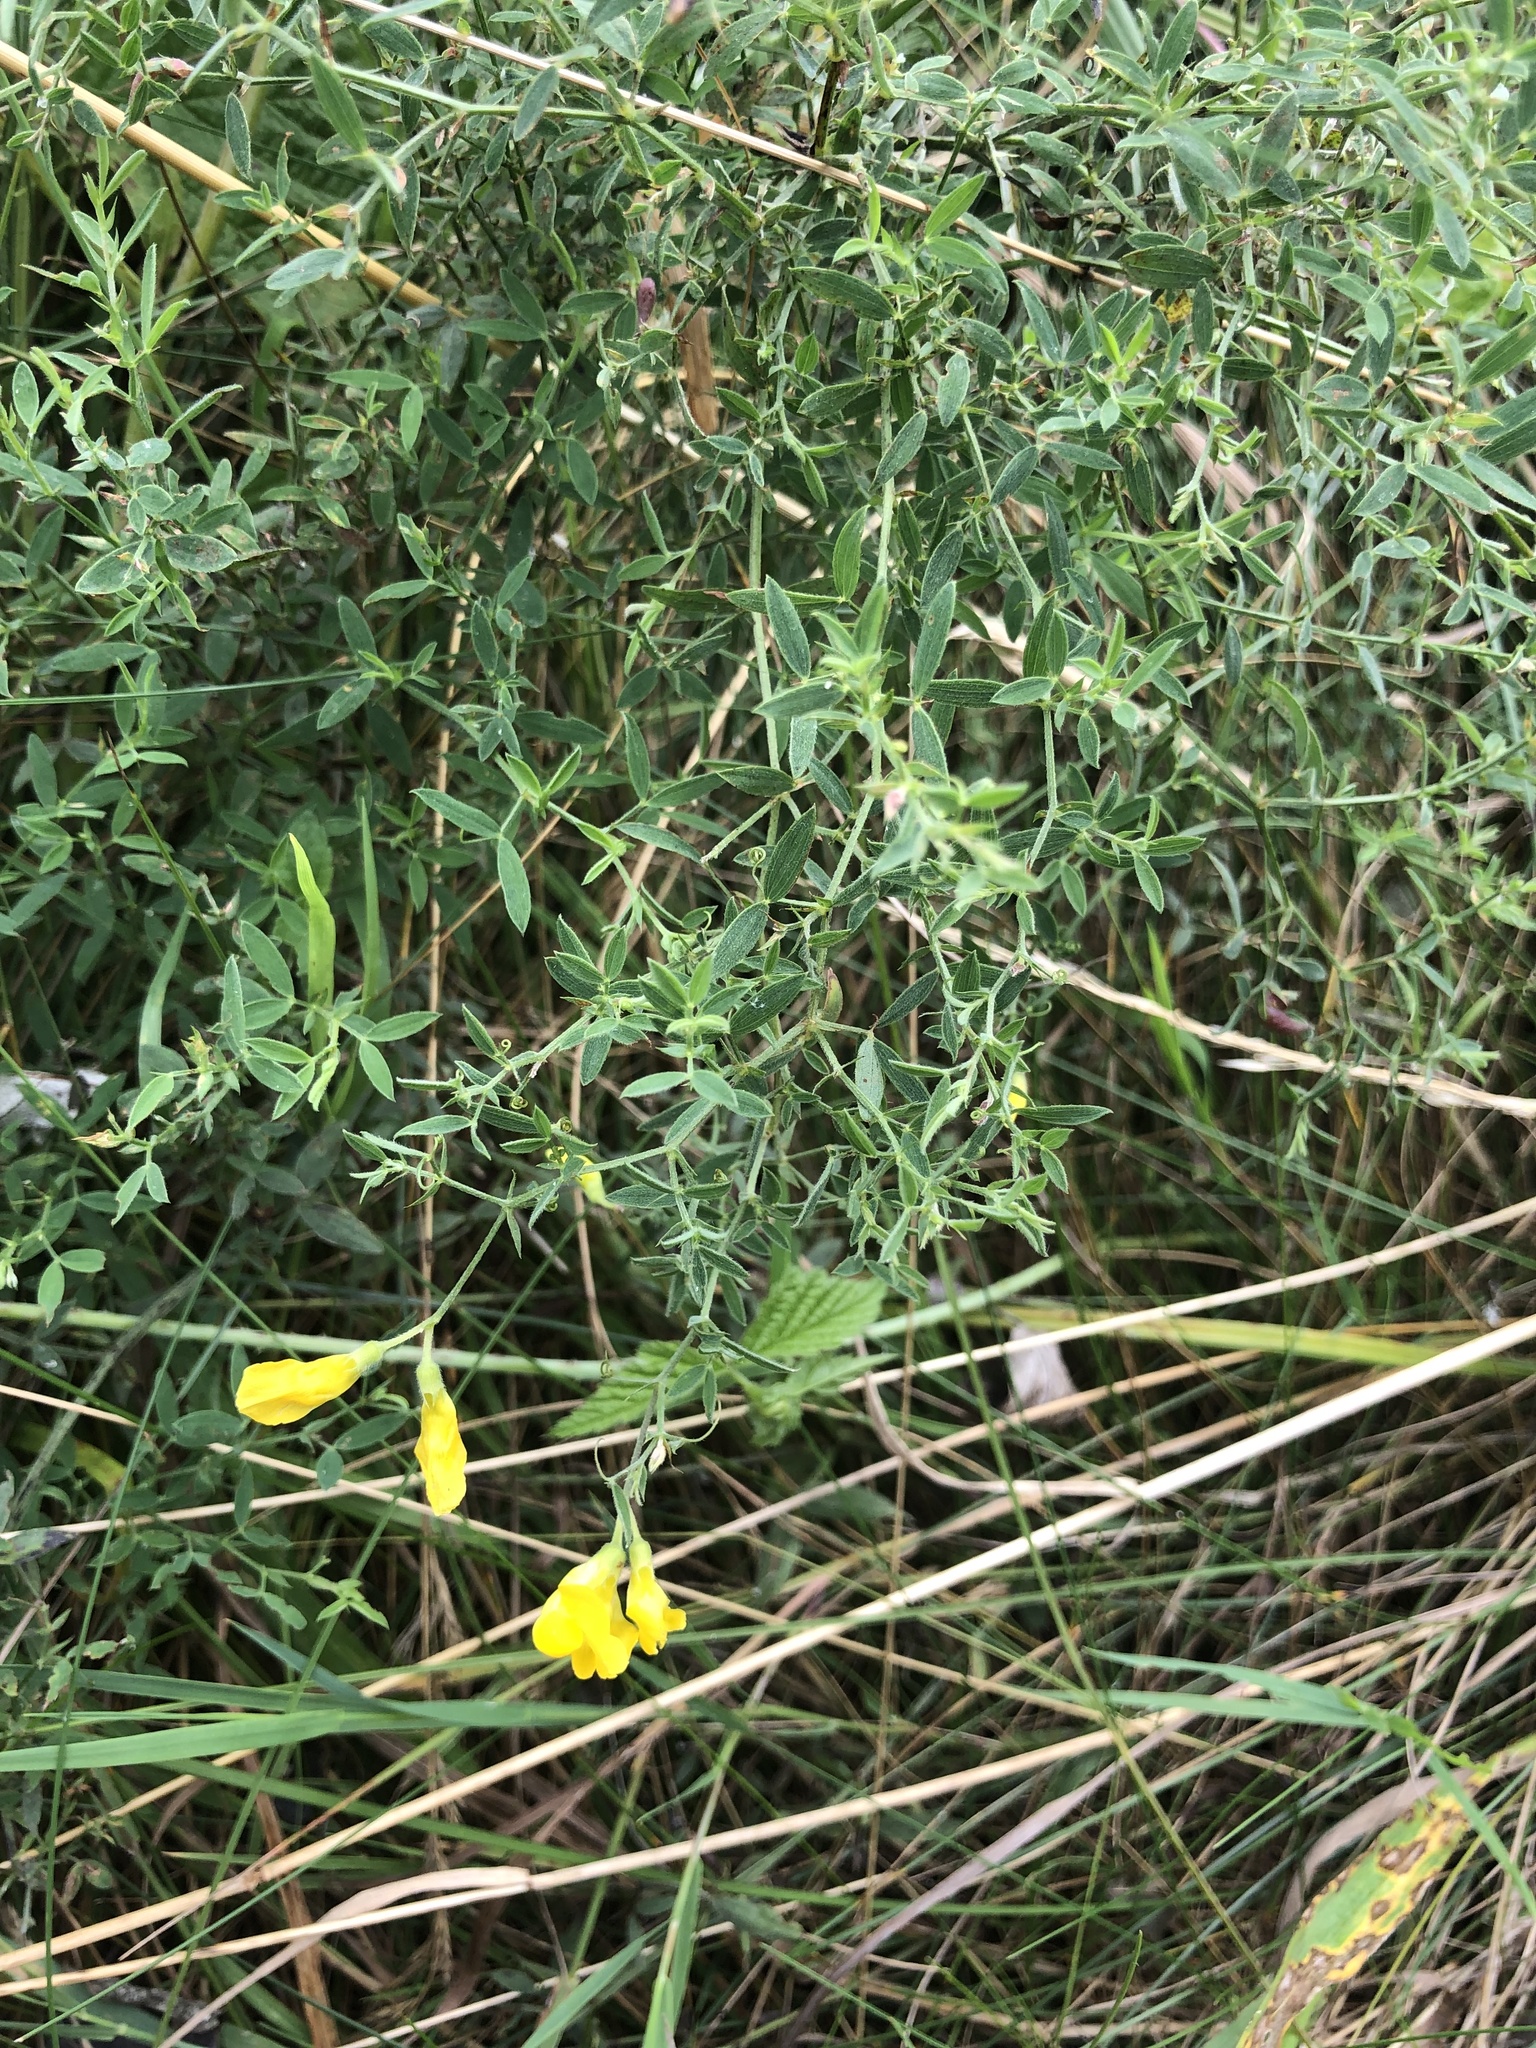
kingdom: Plantae
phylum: Tracheophyta
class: Magnoliopsida
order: Fabales
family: Fabaceae
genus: Lathyrus
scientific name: Lathyrus pratensis
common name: Meadow vetchling
